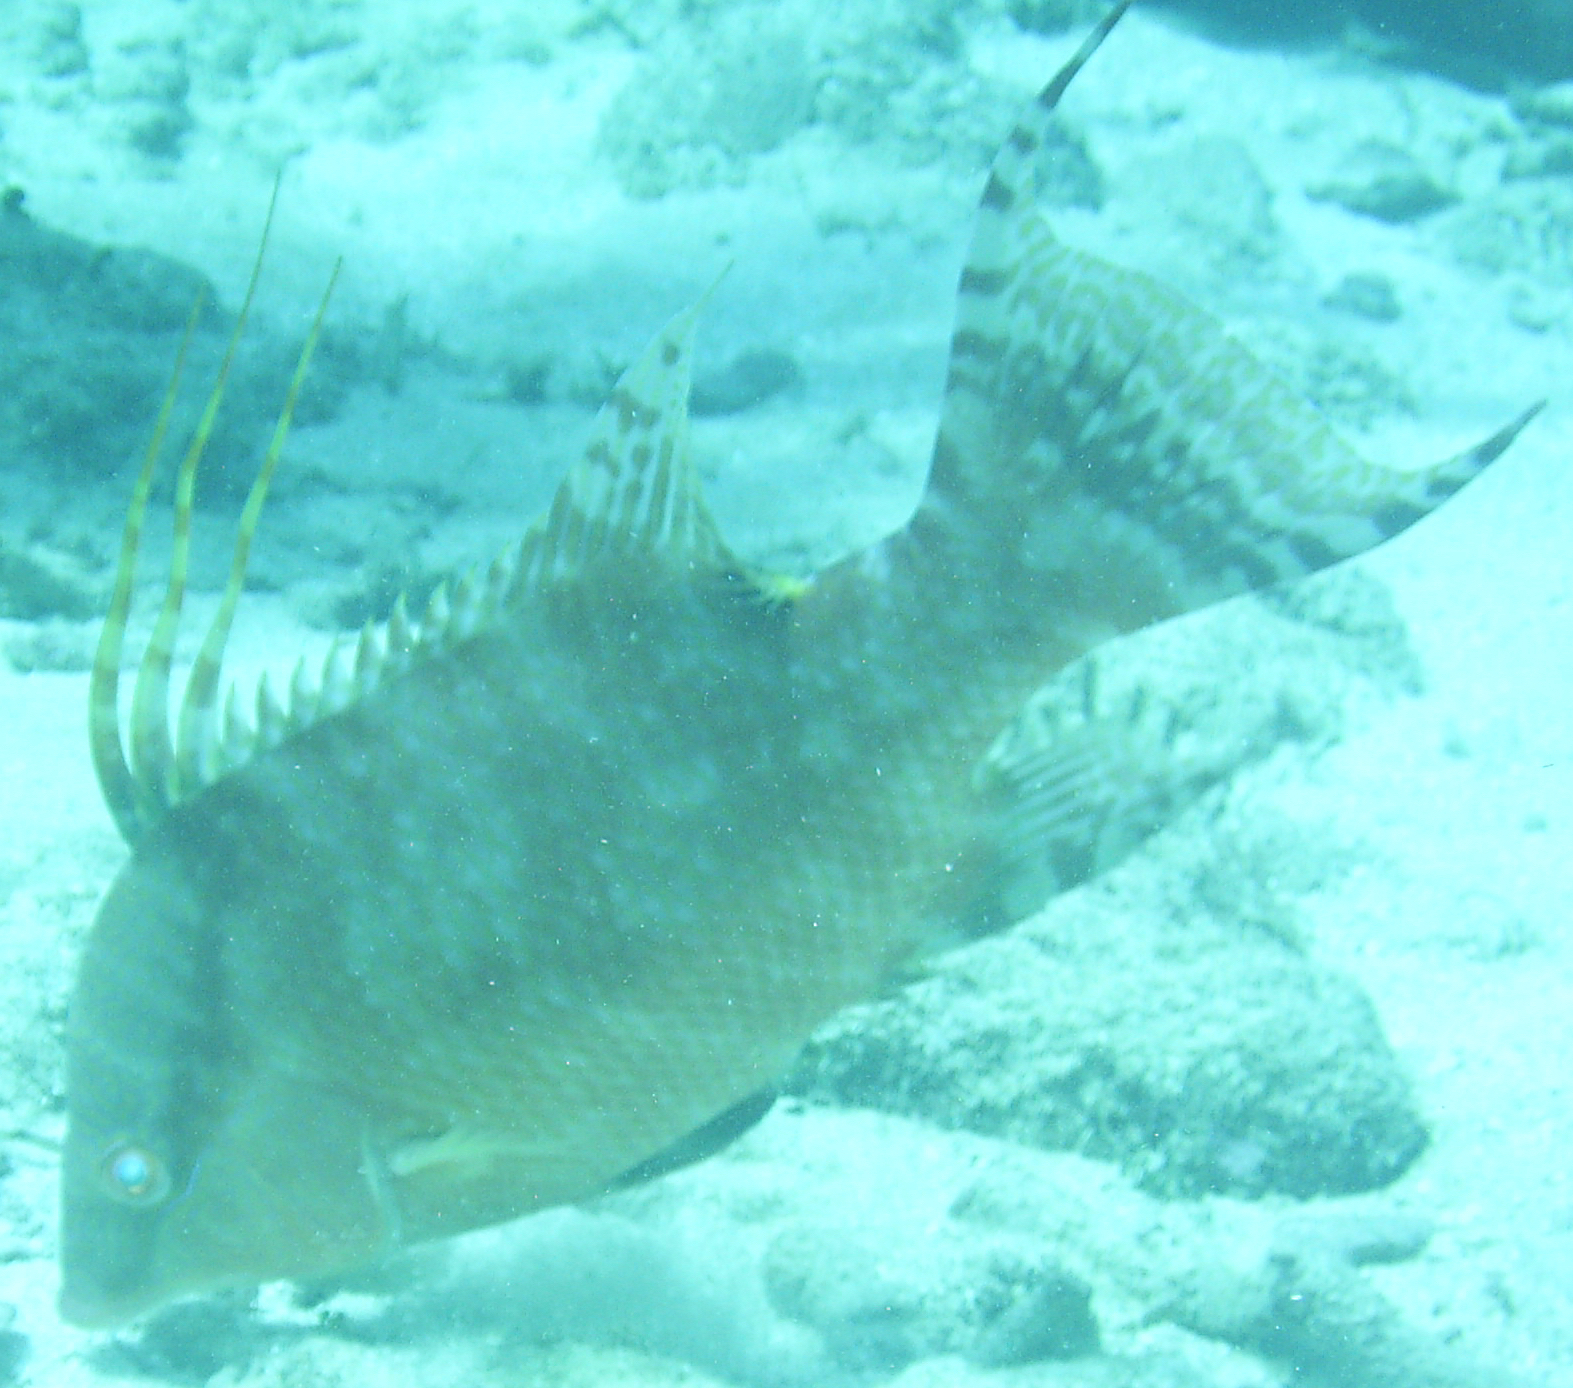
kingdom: Animalia
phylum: Chordata
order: Perciformes
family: Labridae
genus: Lachnolaimus
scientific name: Lachnolaimus maximus
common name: Hogfish
